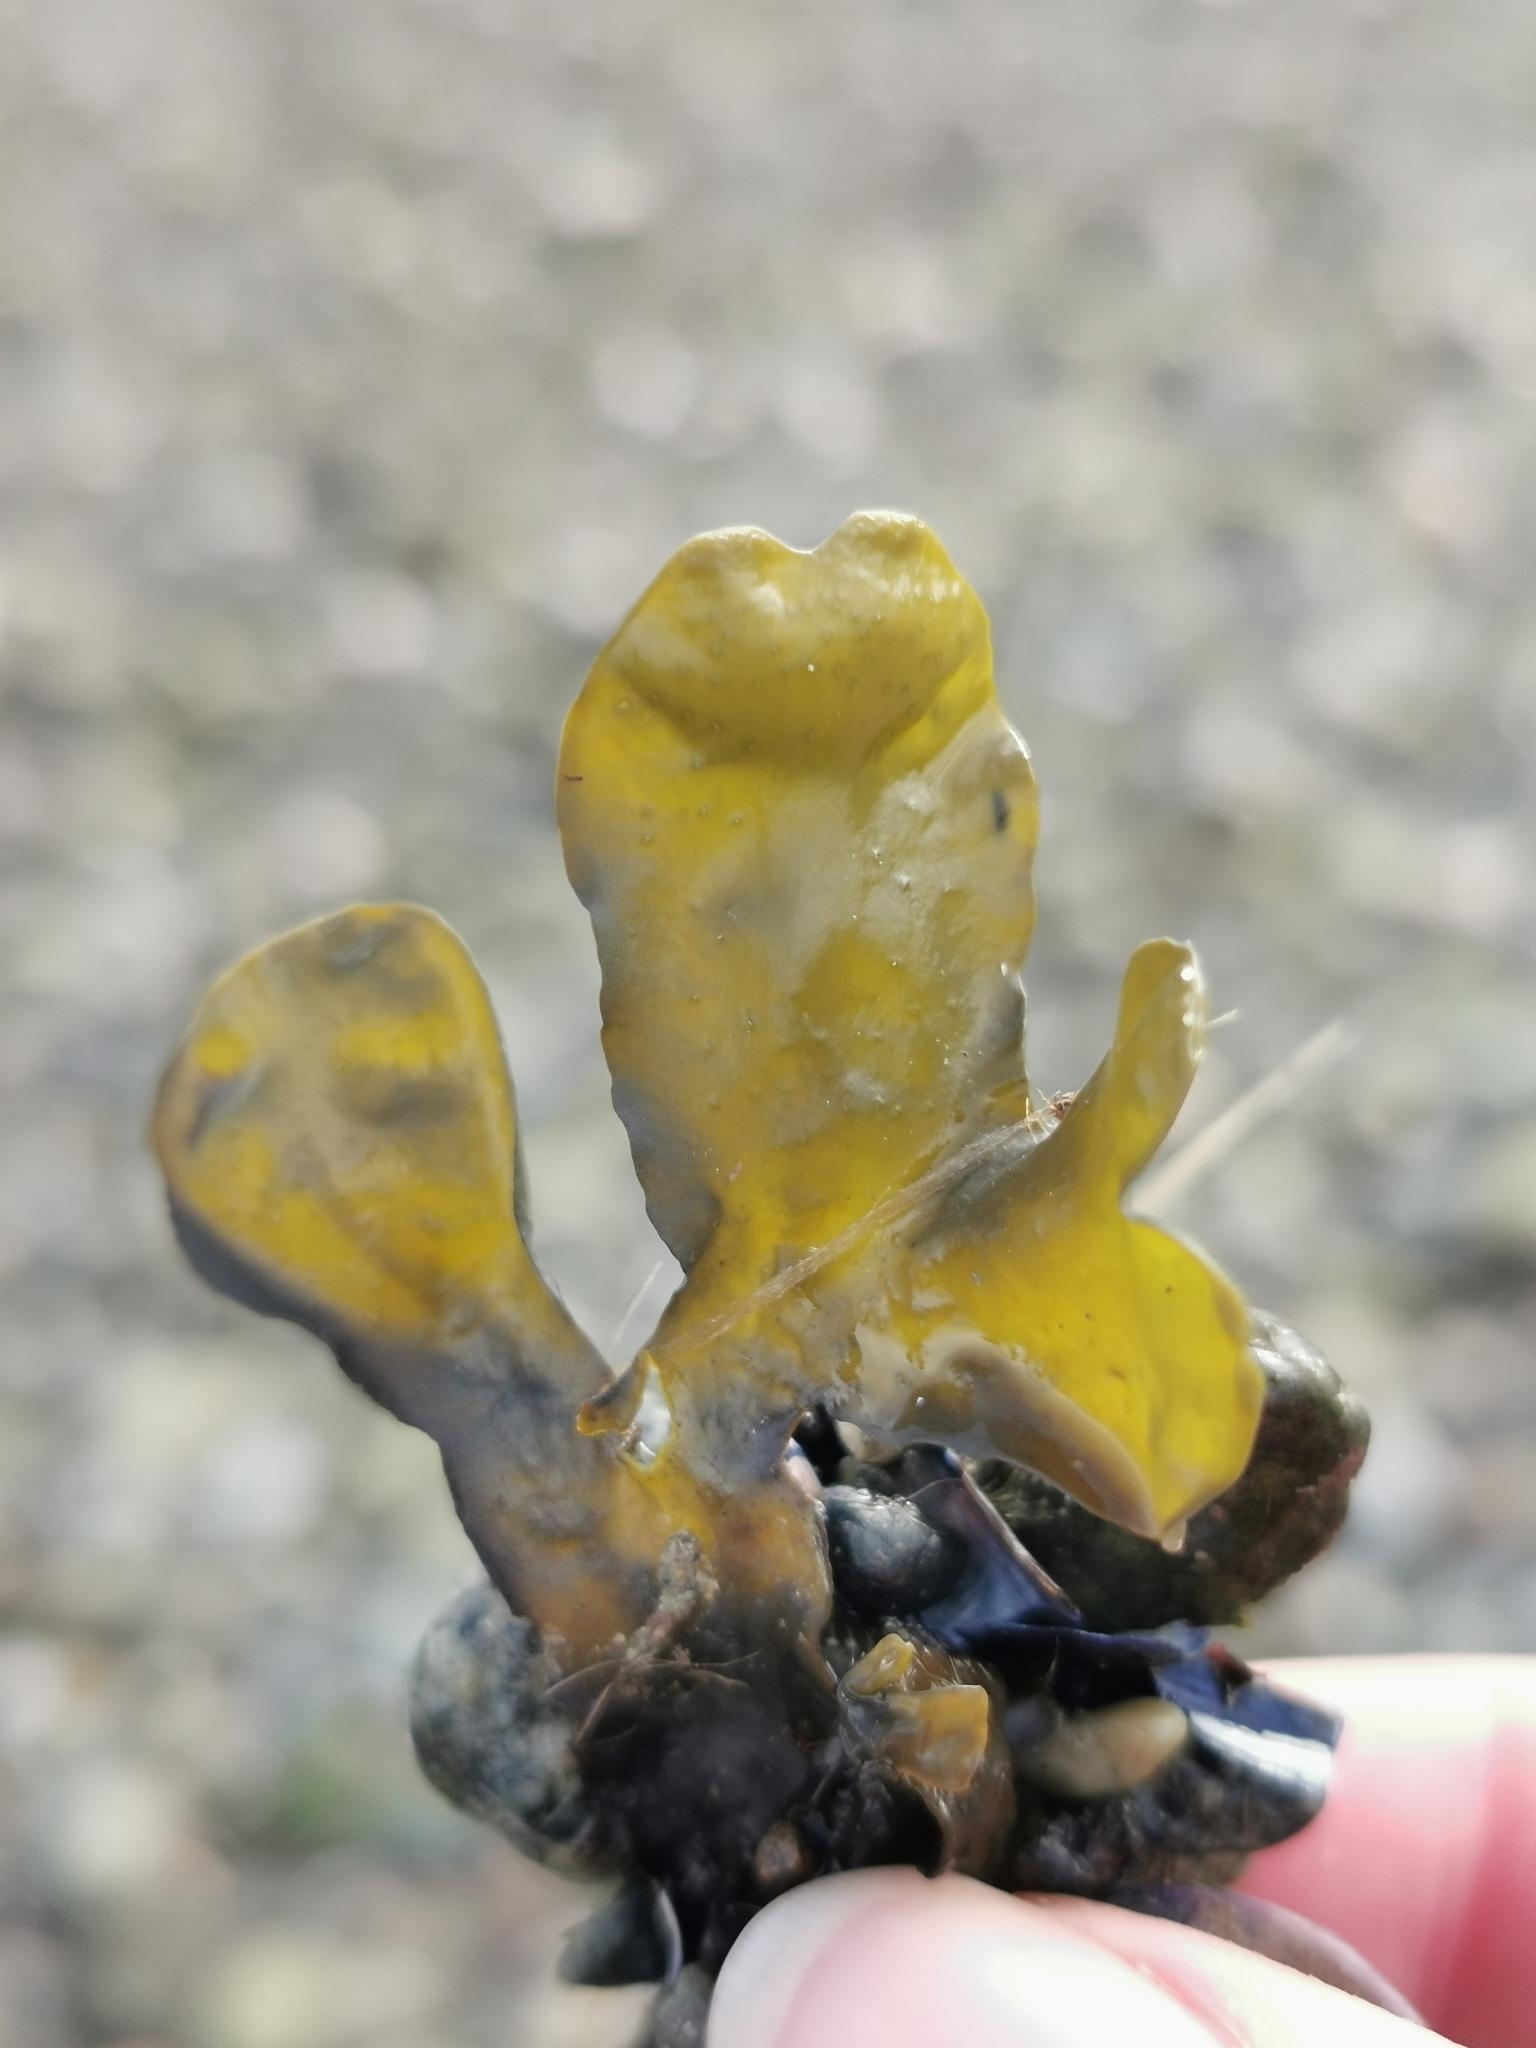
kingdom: Chromista
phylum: Ochrophyta
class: Phaeophyceae
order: Fucales
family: Fucaceae
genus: Fucus
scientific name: Fucus distichus
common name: Rockweed
